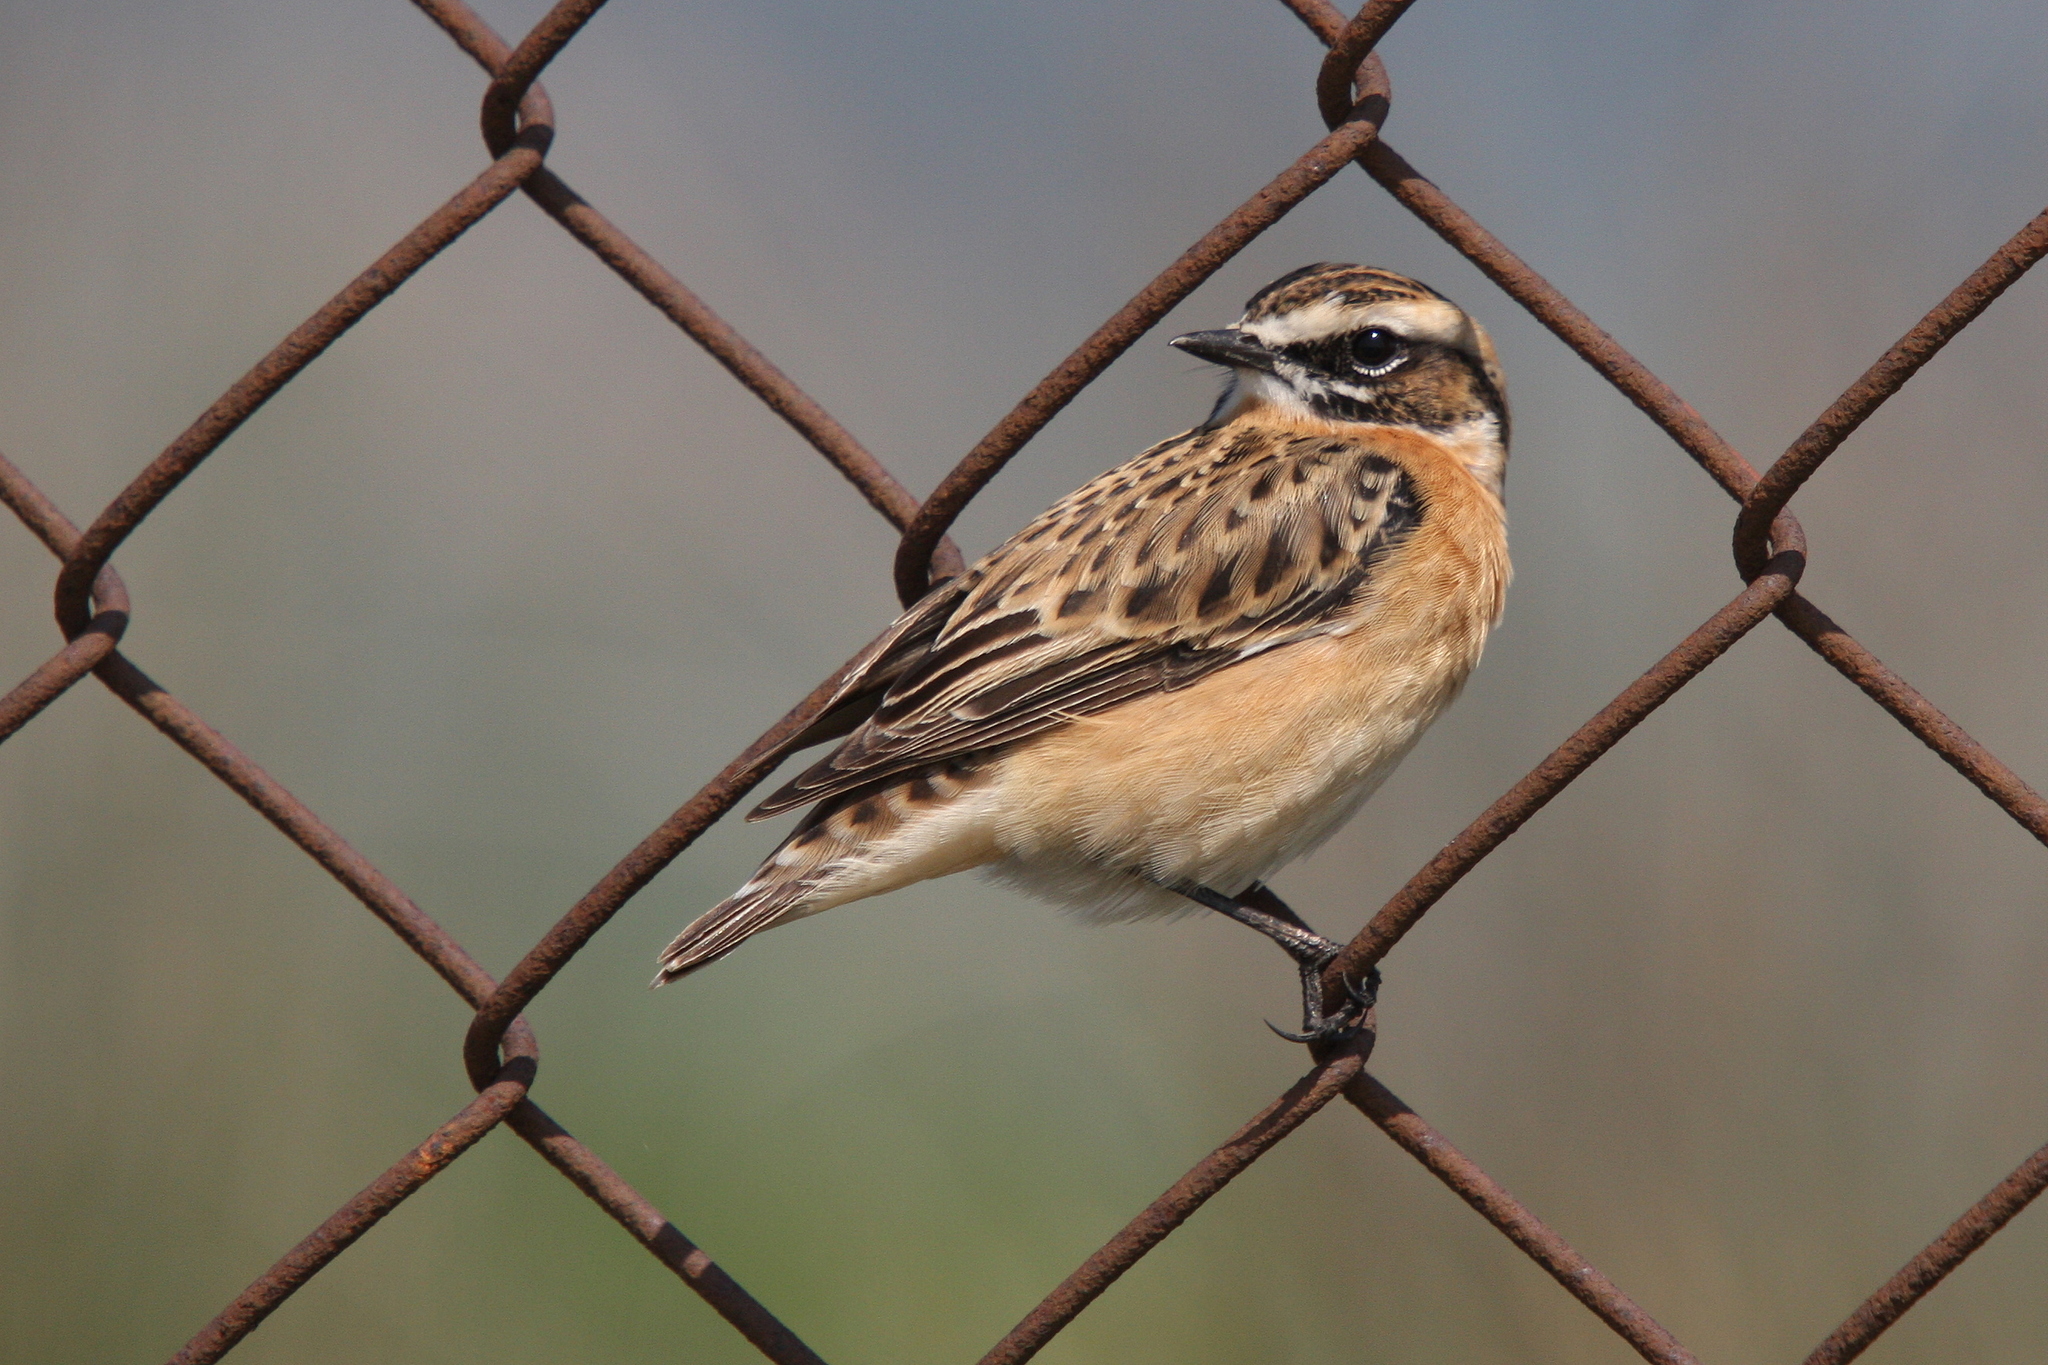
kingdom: Animalia
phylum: Chordata
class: Aves
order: Passeriformes
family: Muscicapidae
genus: Saxicola
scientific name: Saxicola rubetra
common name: Whinchat
